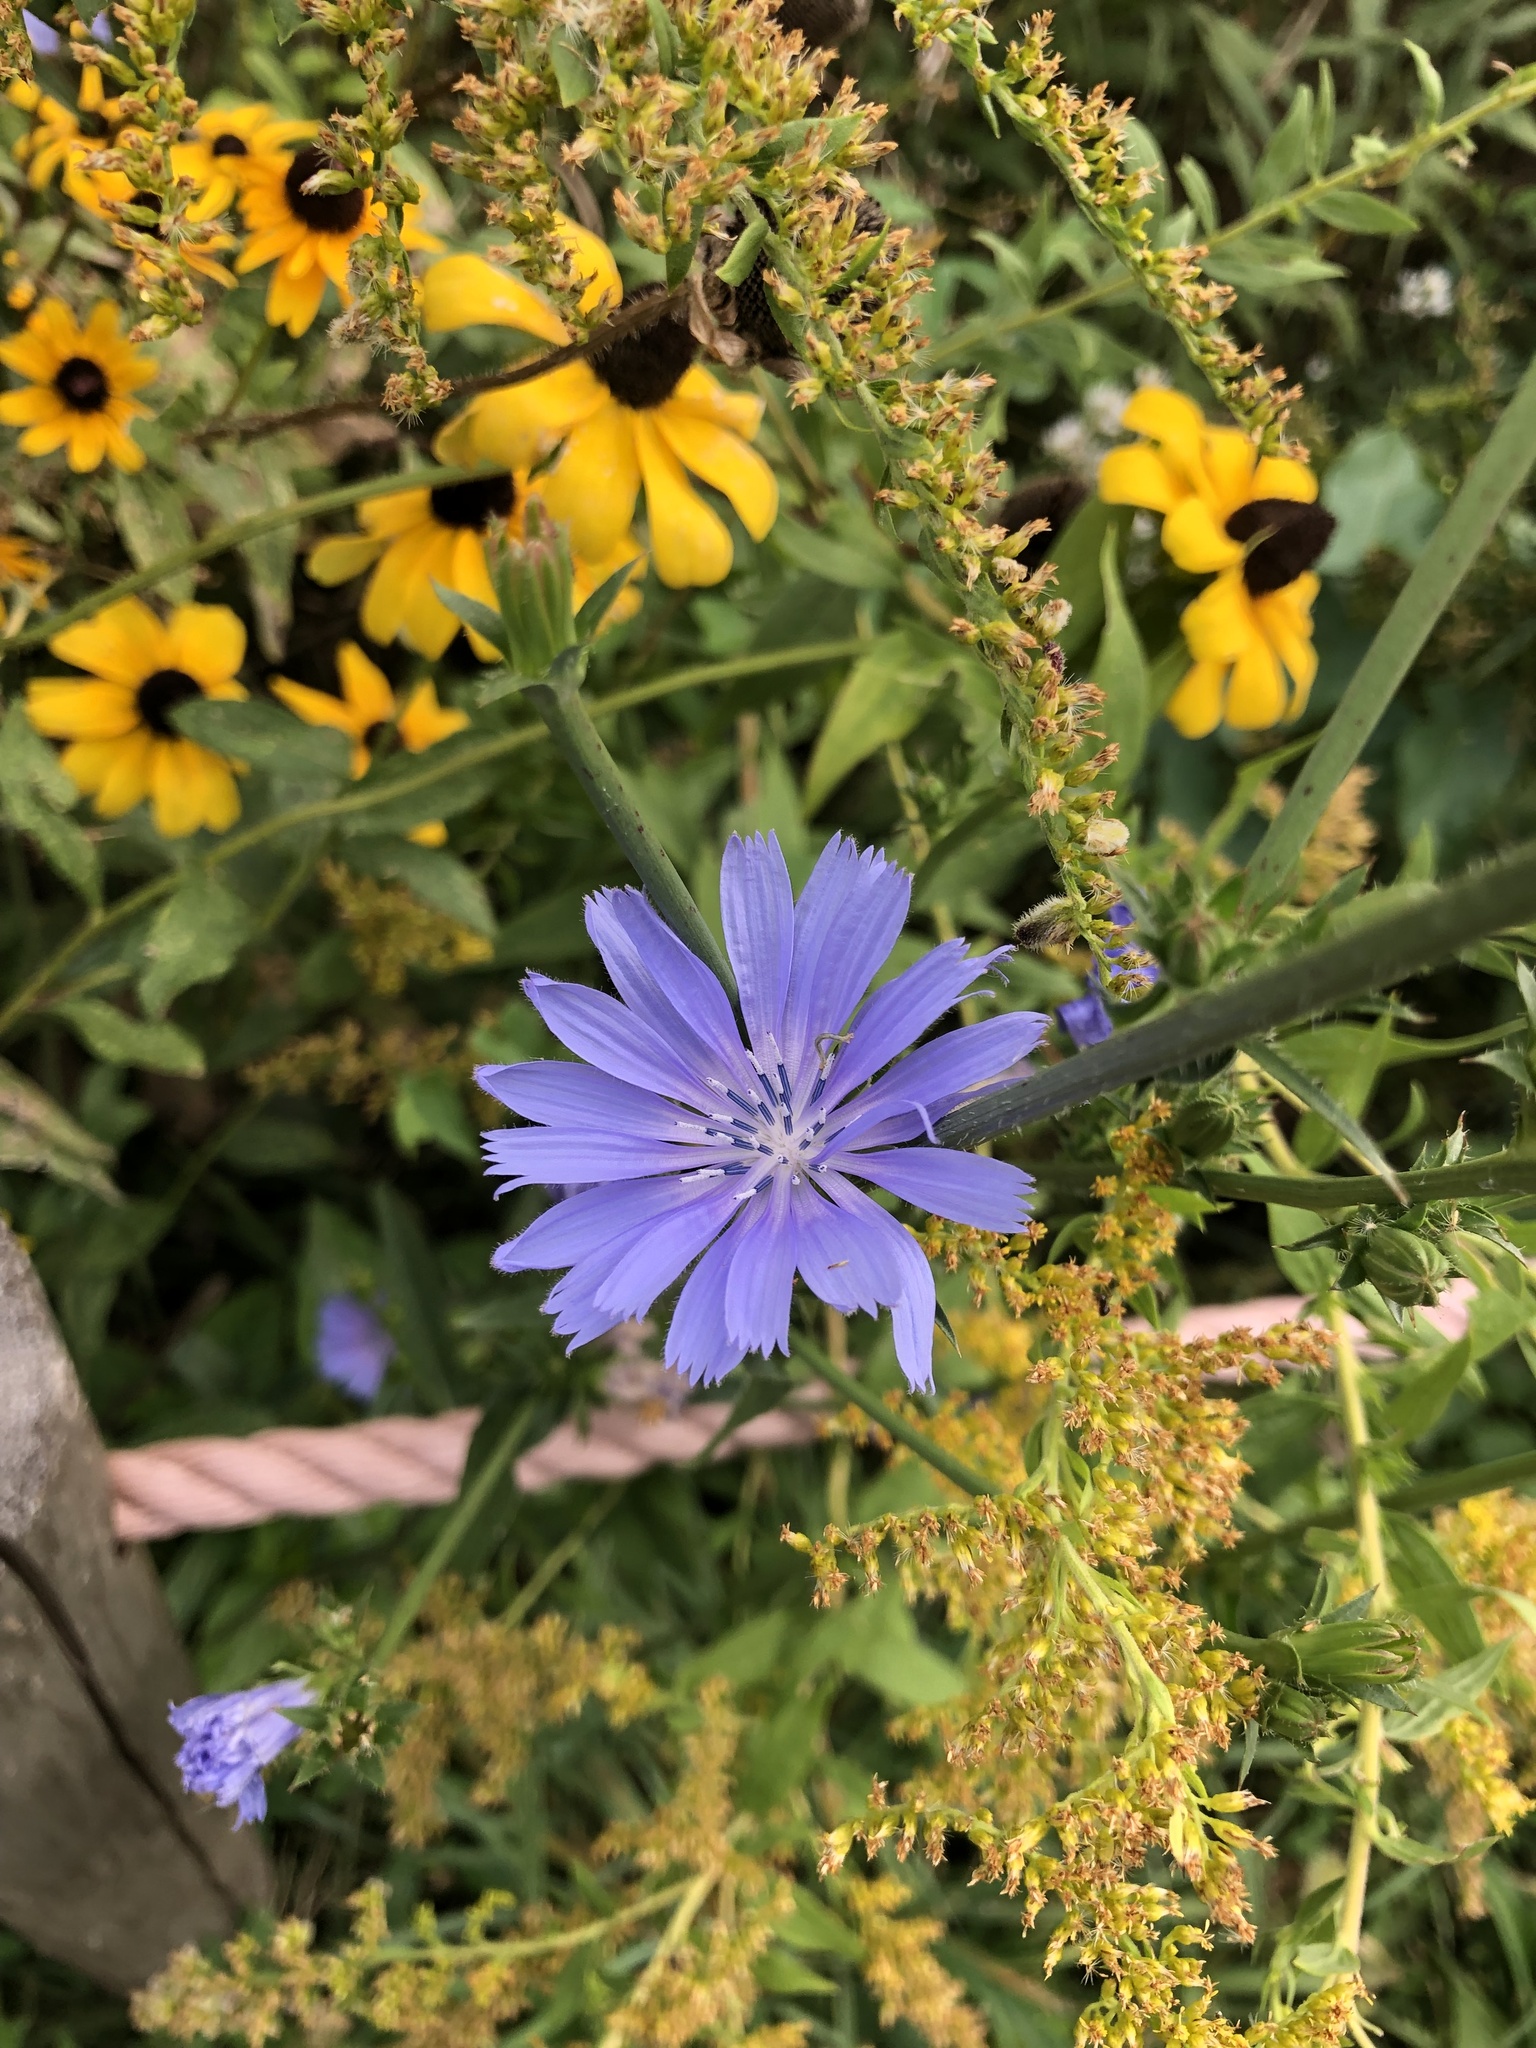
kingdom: Plantae
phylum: Tracheophyta
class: Magnoliopsida
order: Asterales
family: Asteraceae
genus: Cichorium
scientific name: Cichorium intybus
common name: Chicory
